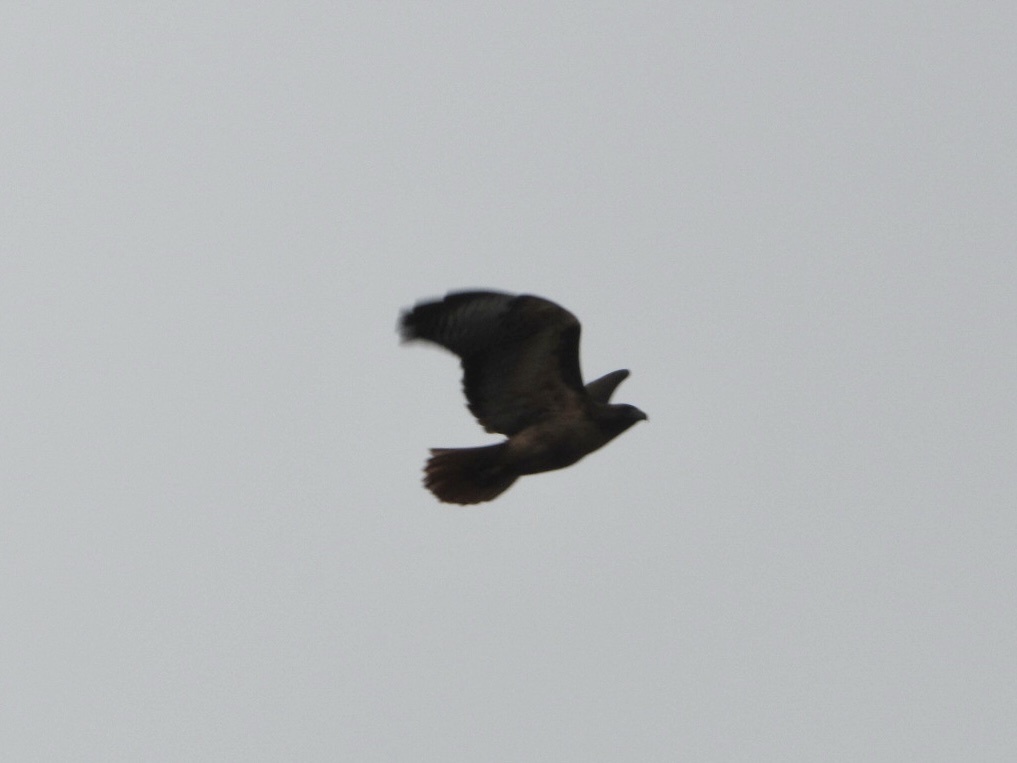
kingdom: Animalia
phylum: Chordata
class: Aves
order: Accipitriformes
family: Accipitridae
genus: Buteo
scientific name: Buteo jamaicensis
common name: Red-tailed hawk
